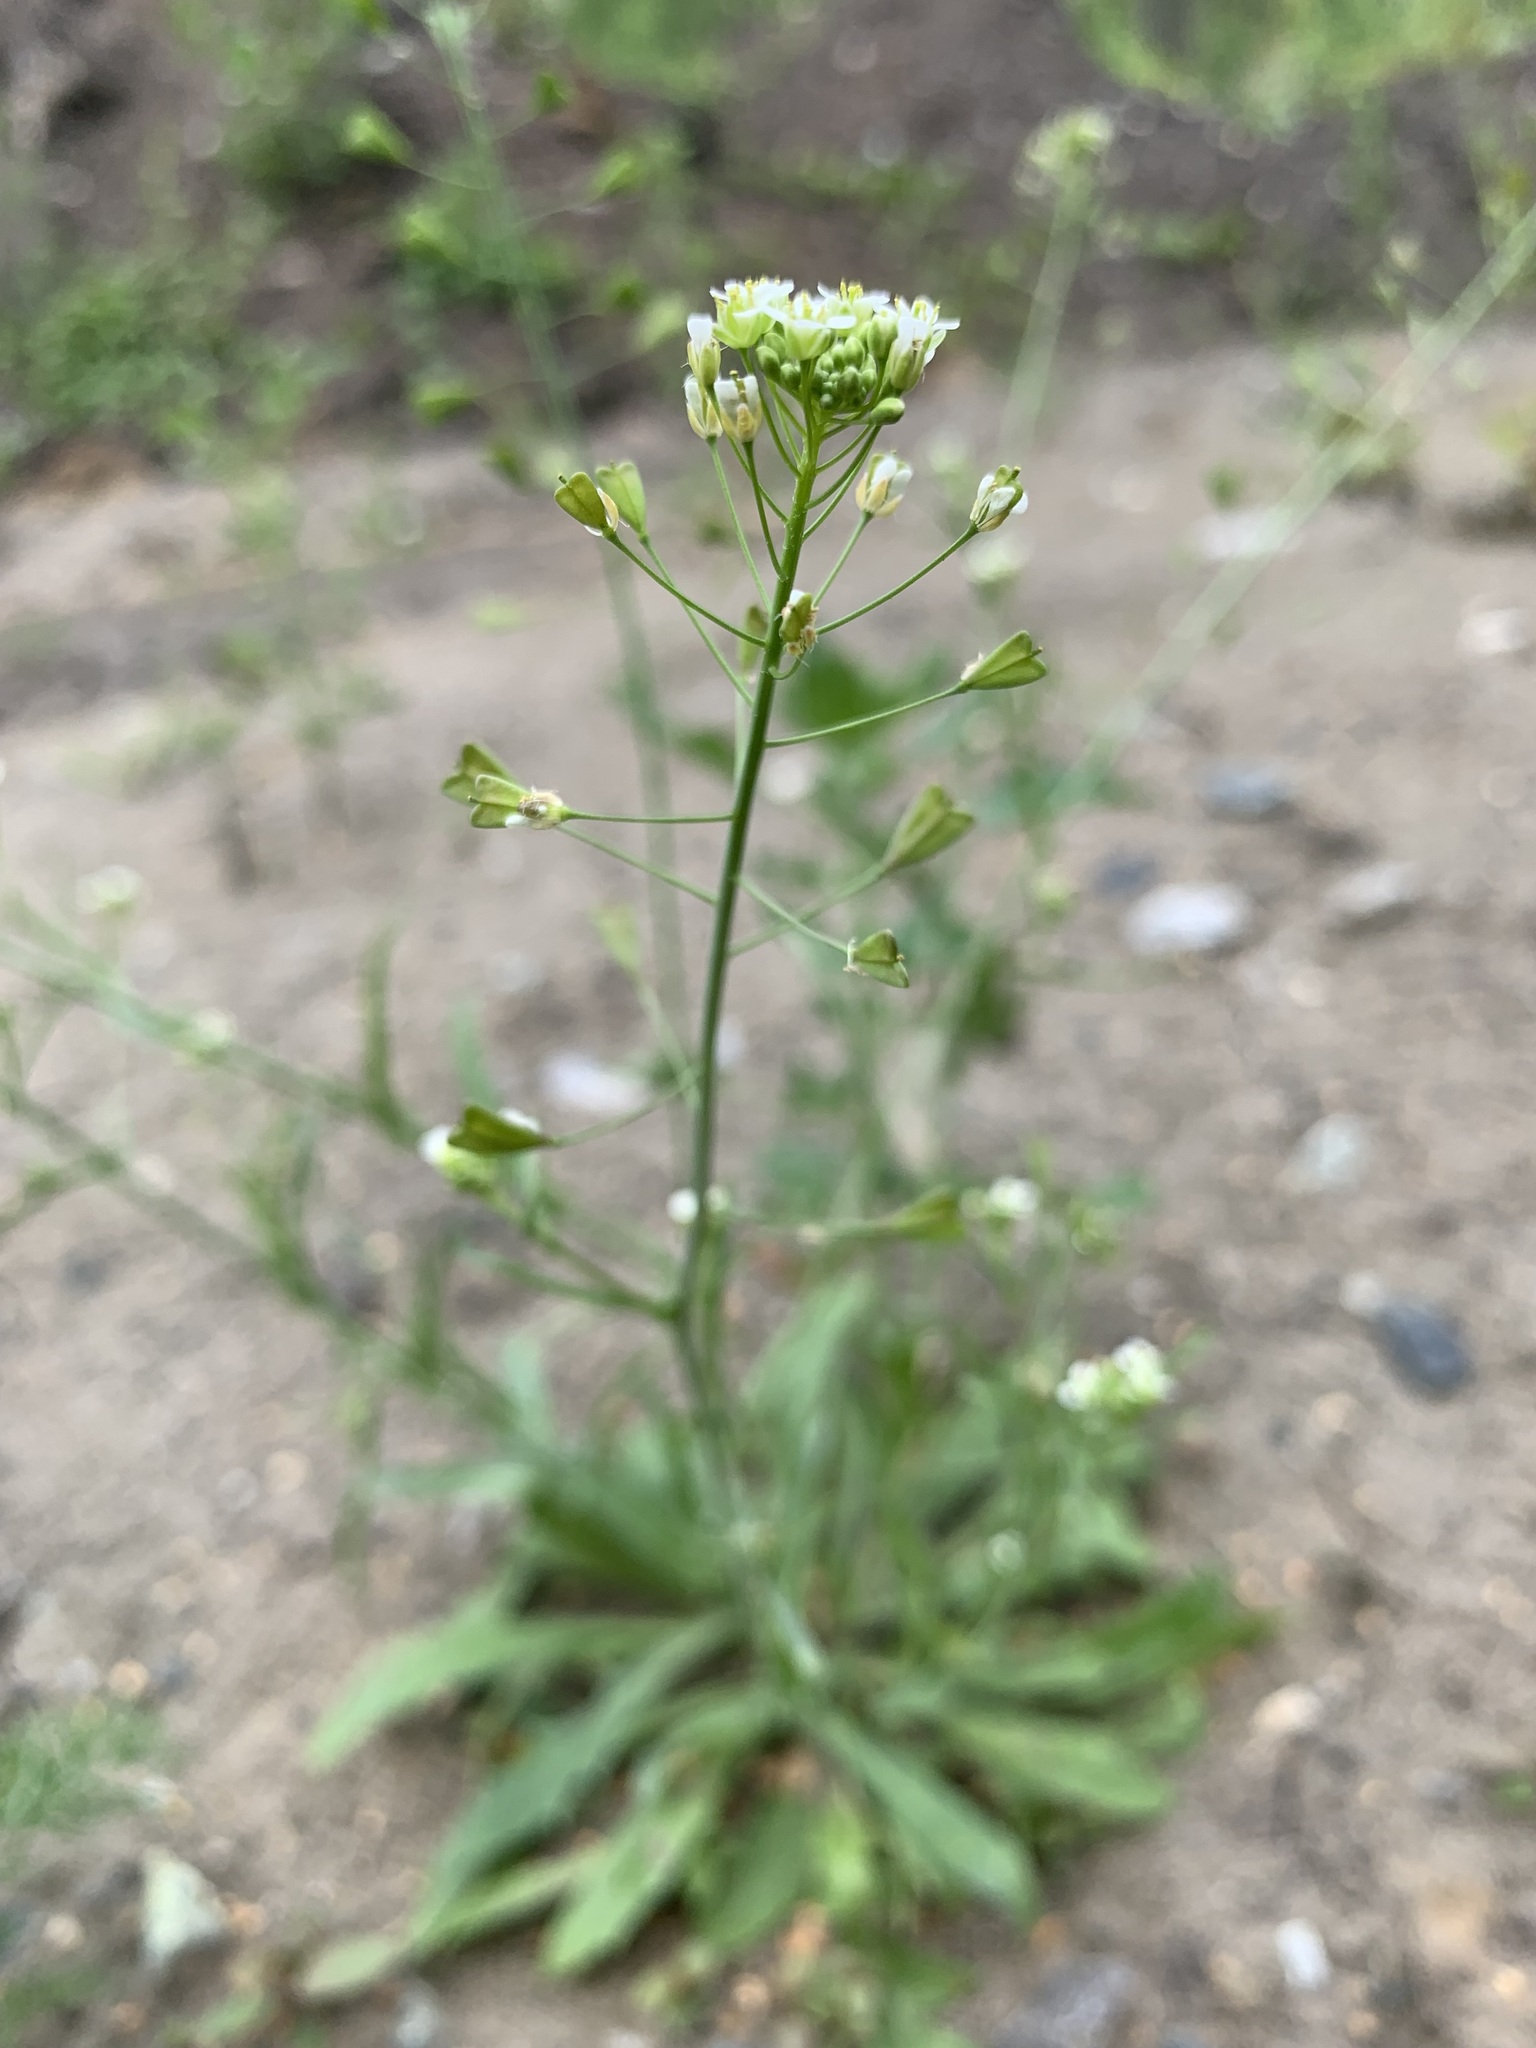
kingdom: Plantae
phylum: Tracheophyta
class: Magnoliopsida
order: Brassicales
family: Brassicaceae
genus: Capsella
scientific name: Capsella bursa-pastoris
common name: Shepherd's purse
